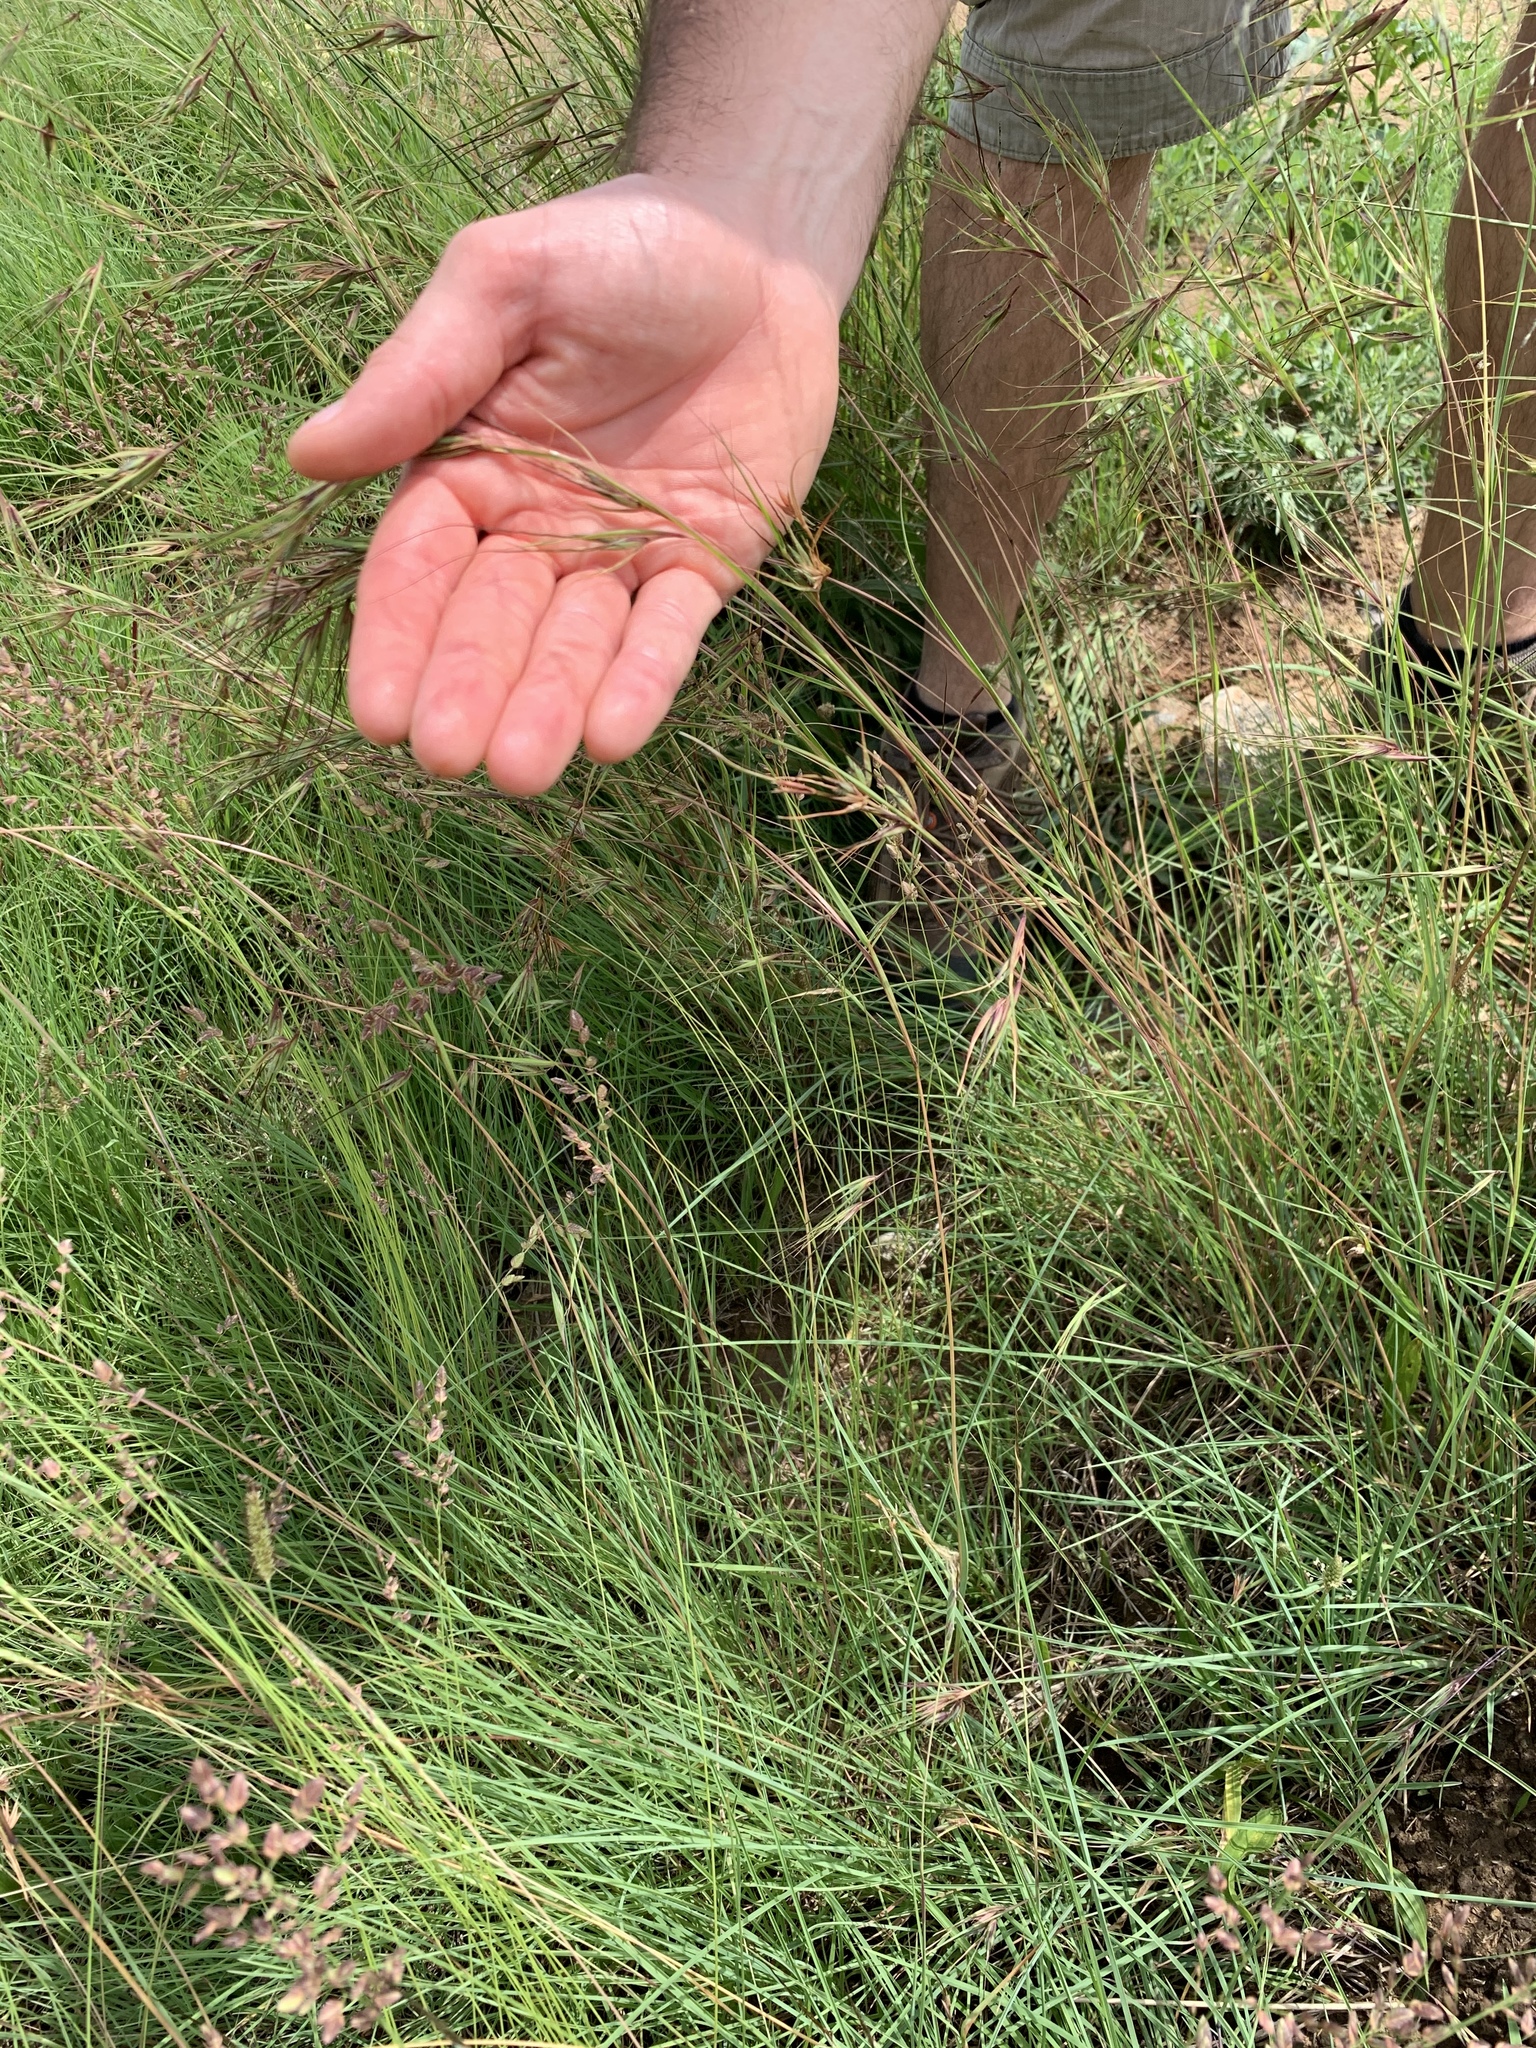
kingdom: Plantae
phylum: Tracheophyta
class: Liliopsida
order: Poales
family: Poaceae
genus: Themeda
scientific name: Themeda triandra
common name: Kangaroo grass
